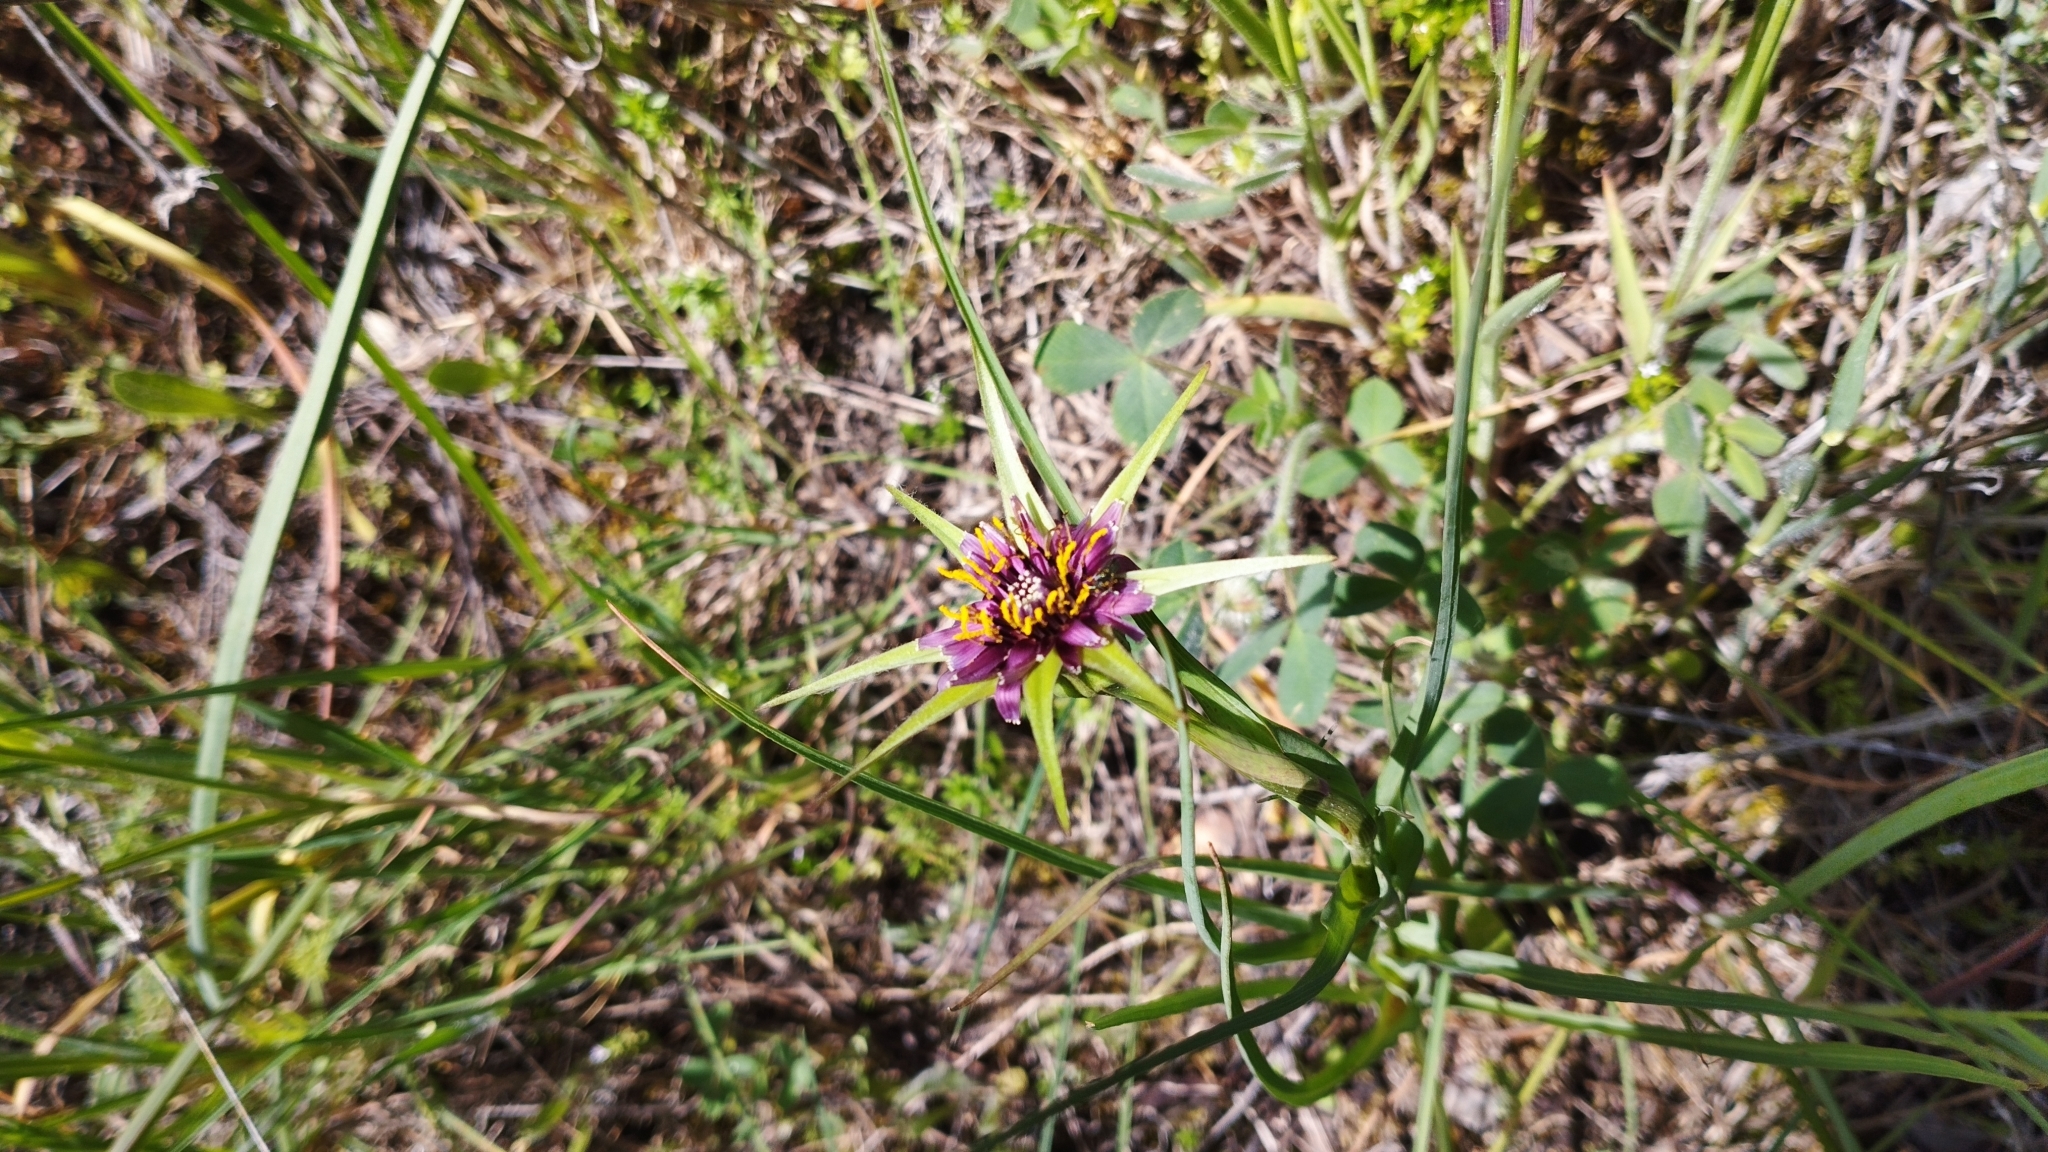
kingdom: Plantae
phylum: Tracheophyta
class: Magnoliopsida
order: Asterales
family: Asteraceae
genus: Tragopogon
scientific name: Tragopogon porrifolius
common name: Salsify
